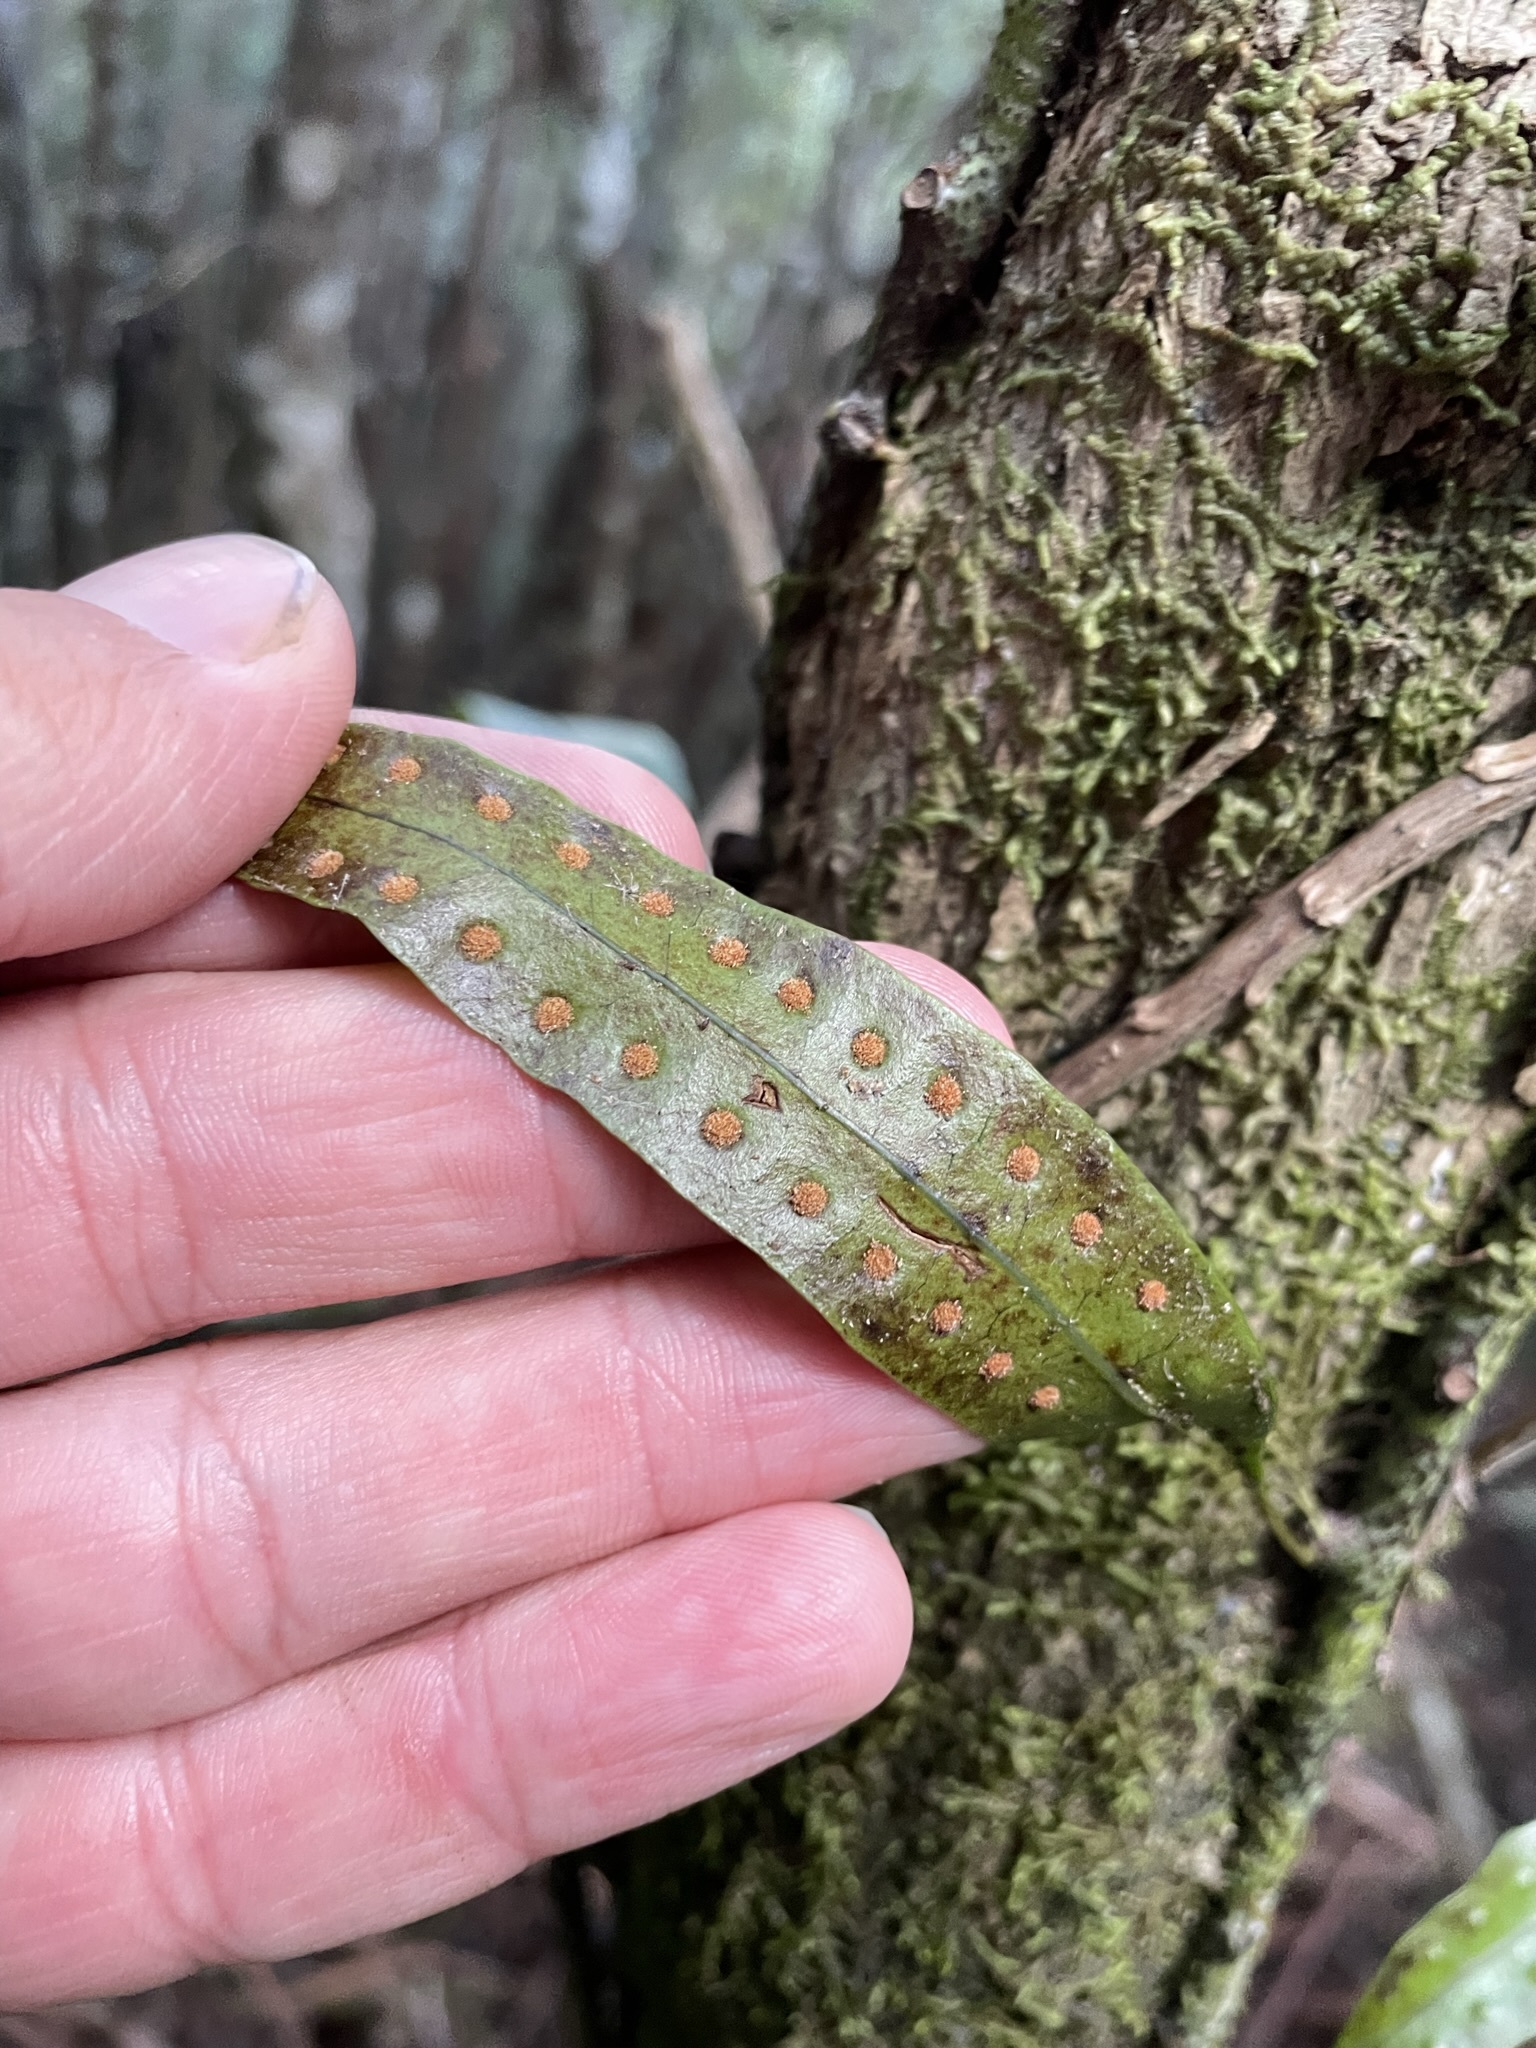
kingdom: Plantae
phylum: Tracheophyta
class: Polypodiopsida
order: Polypodiales
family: Polypodiaceae
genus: Lecanopteris
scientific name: Lecanopteris pustulata
